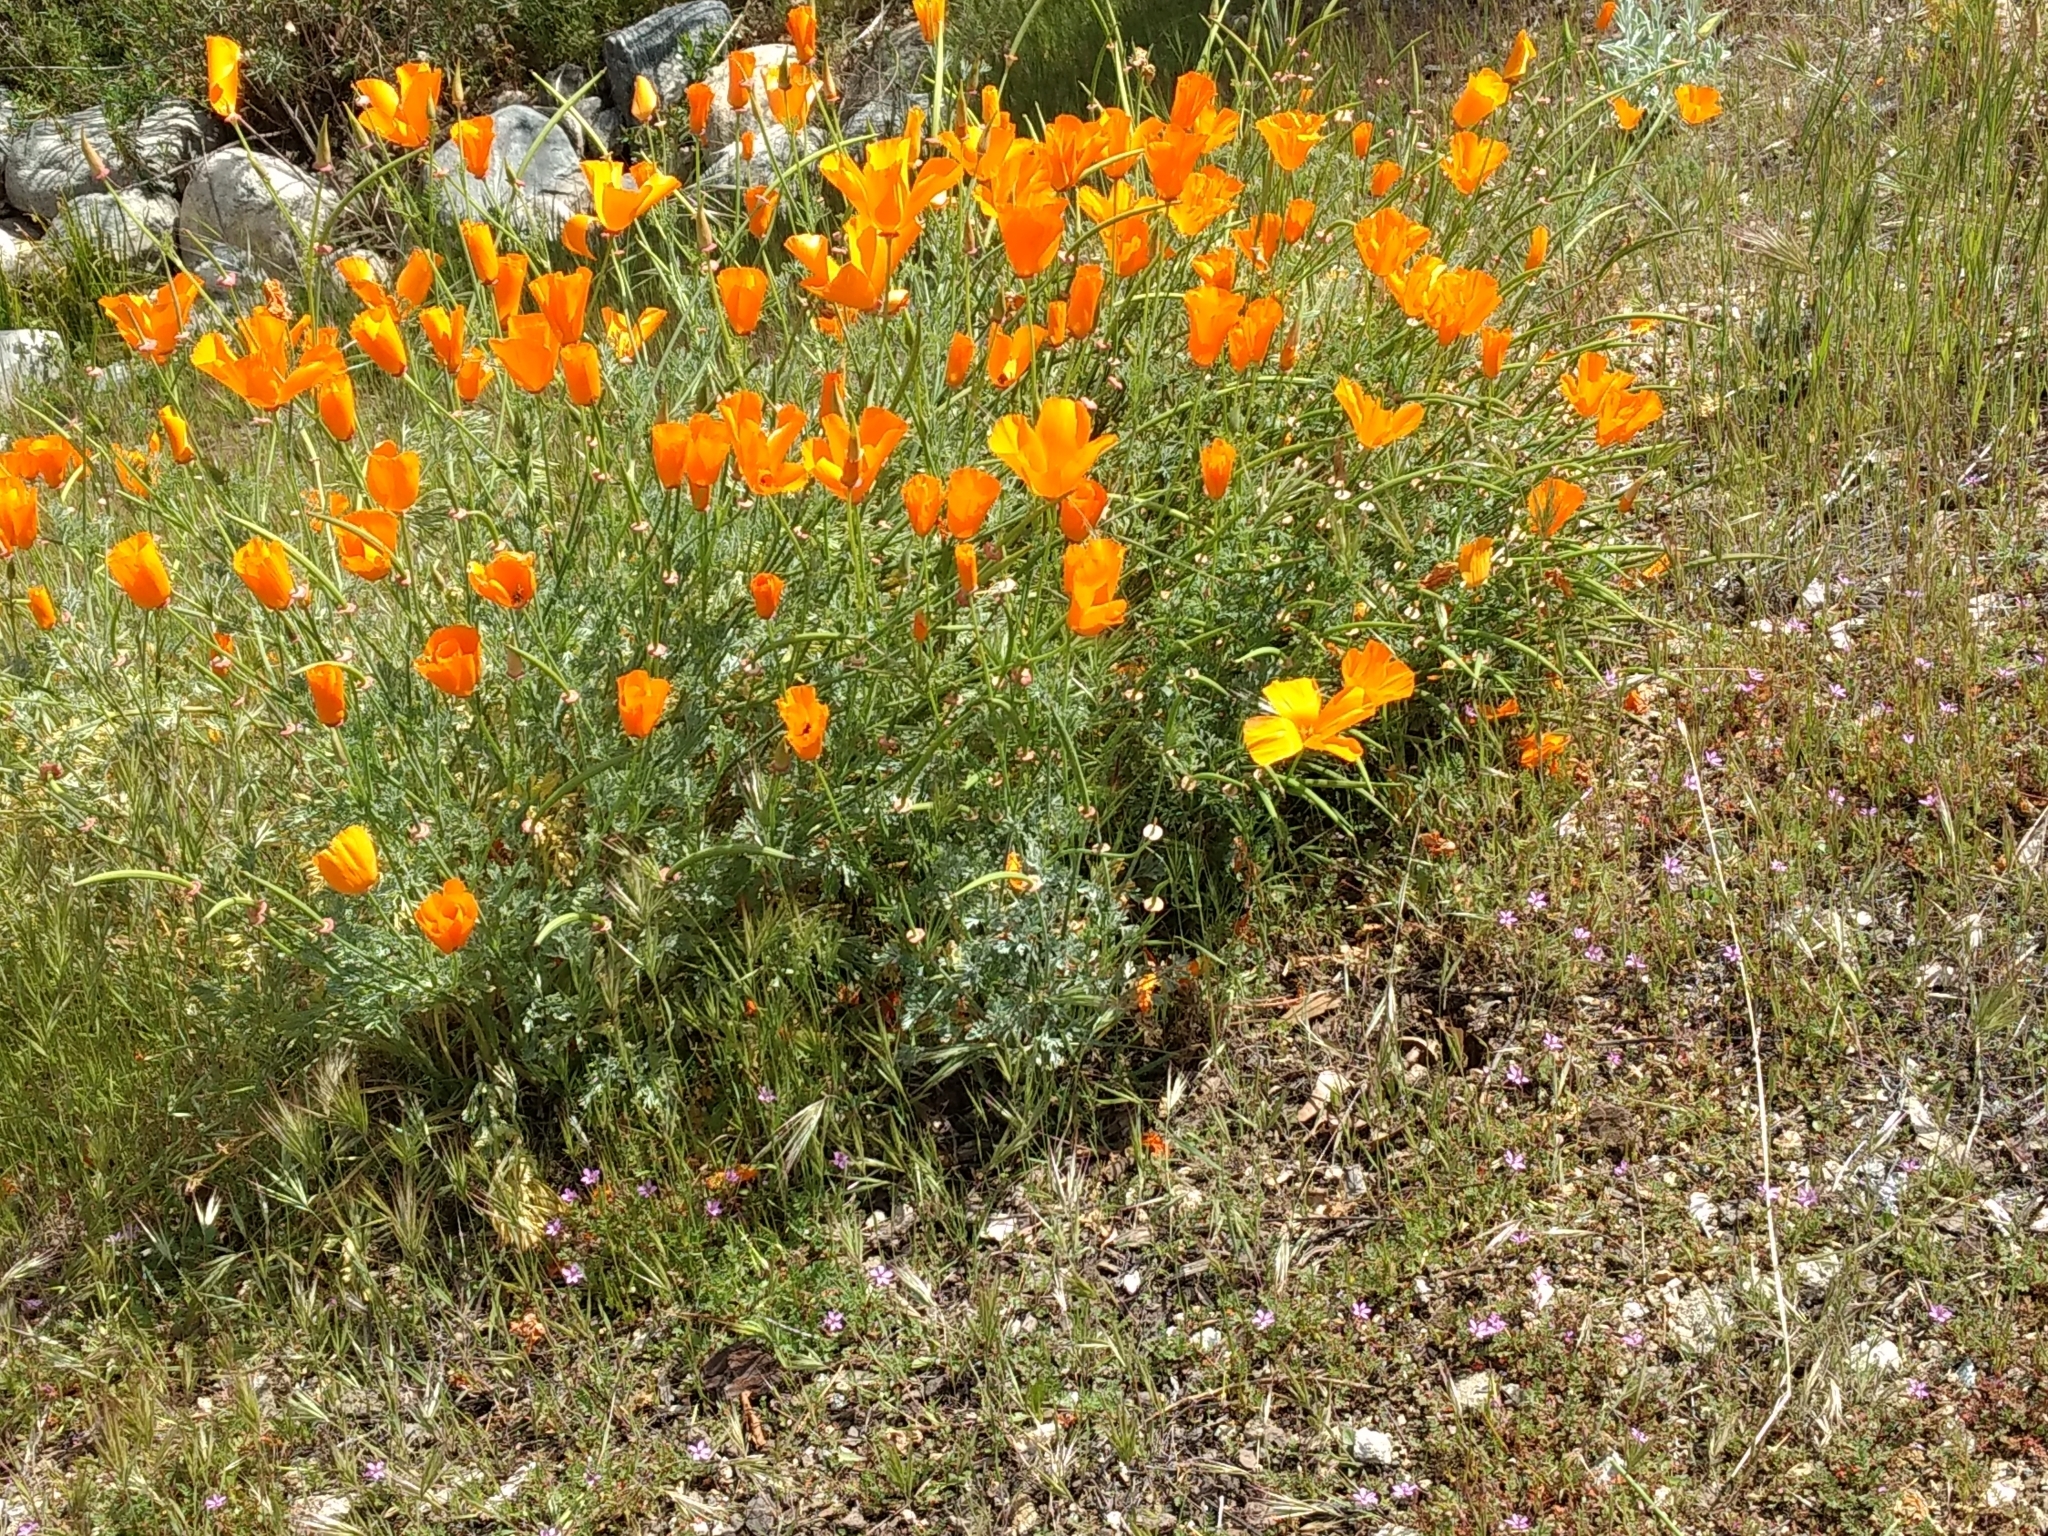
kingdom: Plantae
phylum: Tracheophyta
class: Magnoliopsida
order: Ranunculales
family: Papaveraceae
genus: Eschscholzia
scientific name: Eschscholzia californica
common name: California poppy
